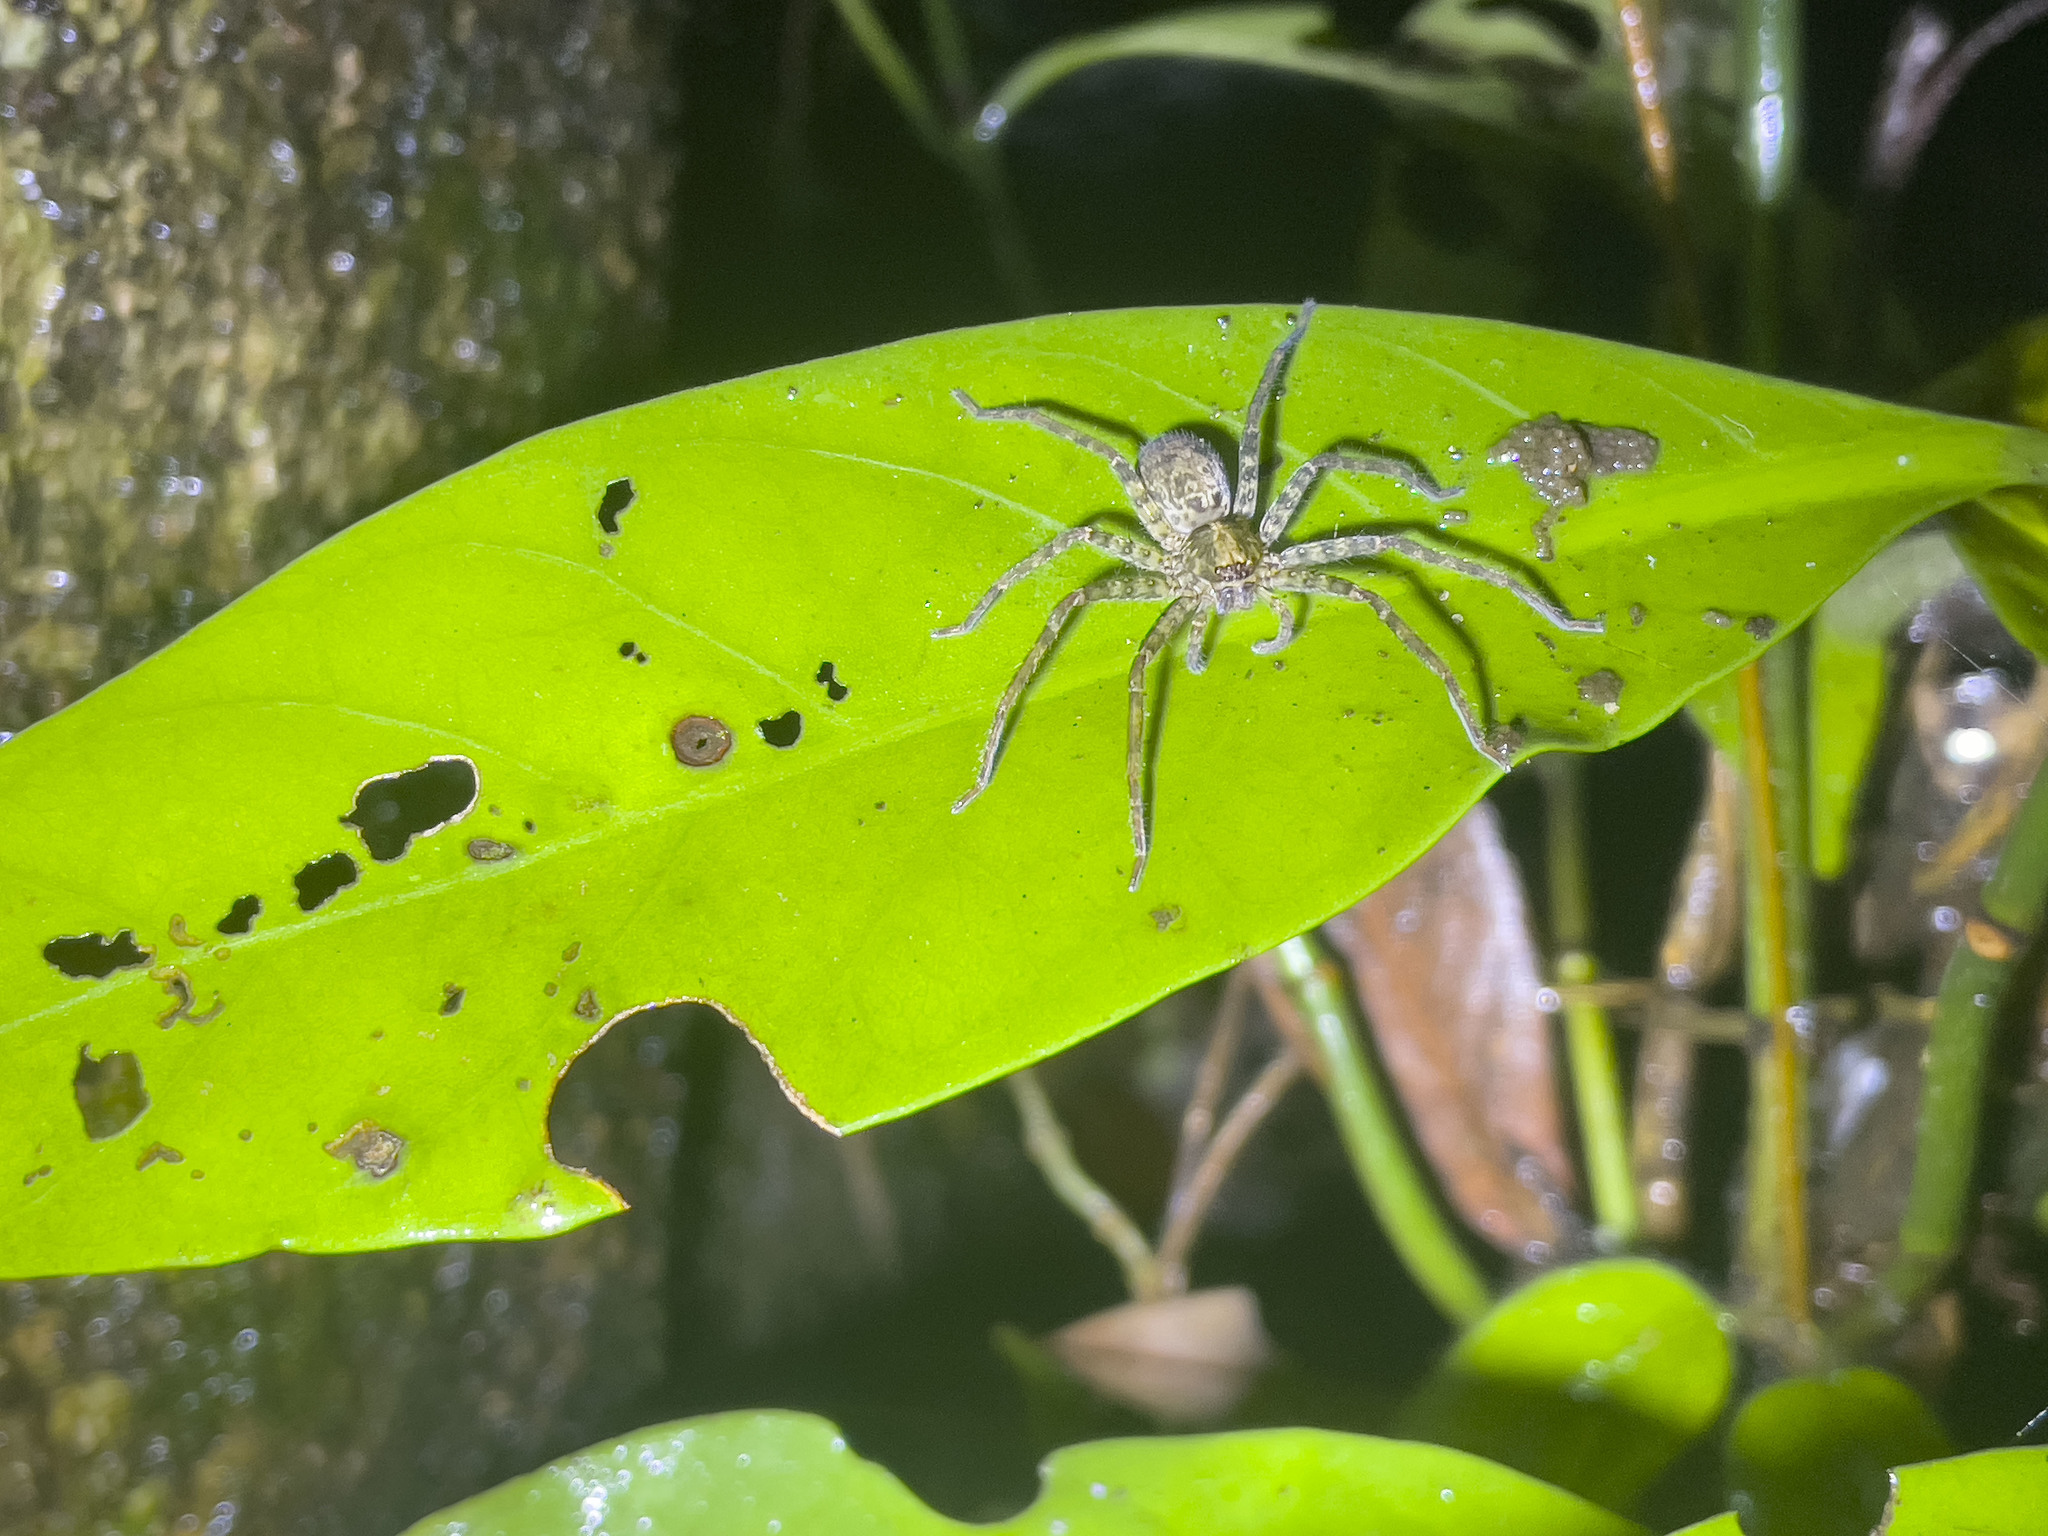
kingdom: Animalia
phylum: Arthropoda
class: Arachnida
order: Araneae
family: Sparassidae
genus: Heteropoda
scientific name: Heteropoda amphora
